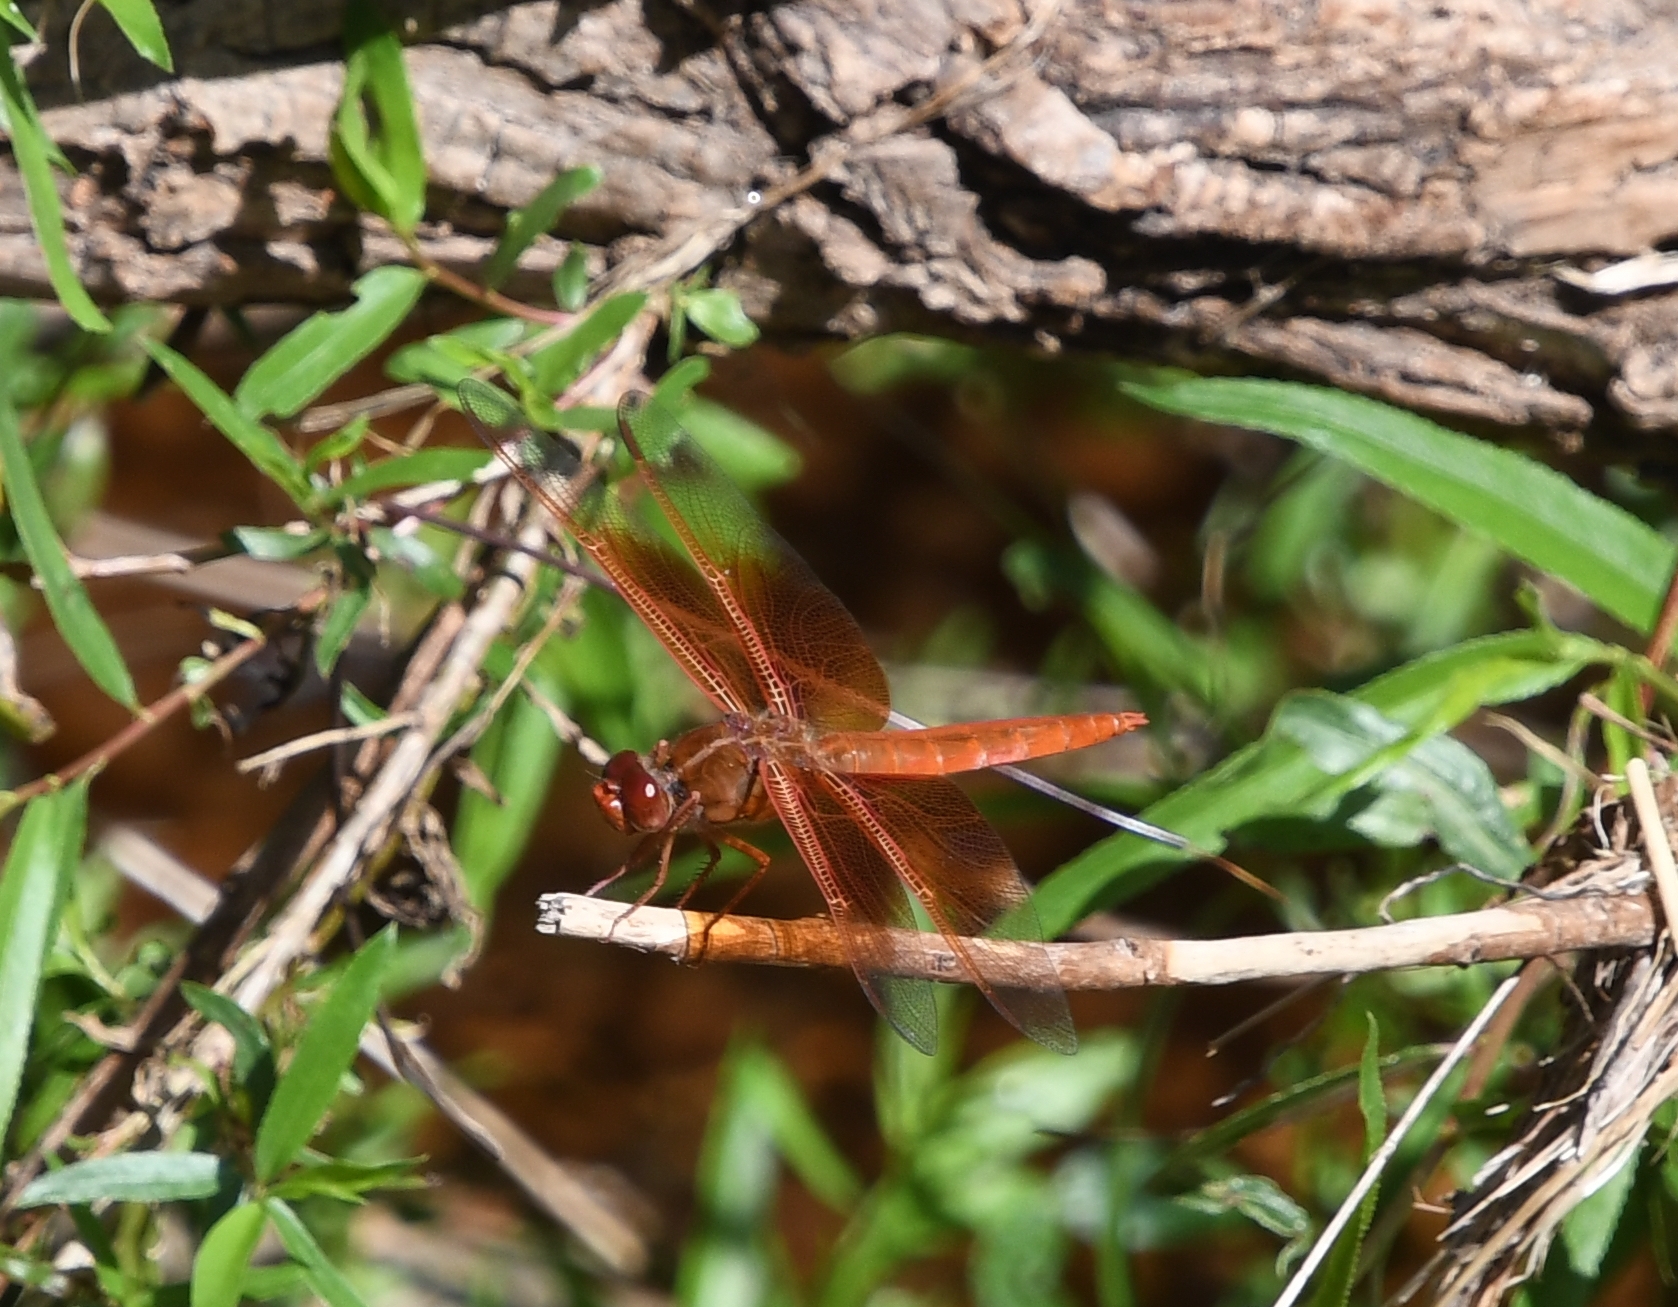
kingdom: Animalia
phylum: Arthropoda
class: Insecta
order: Odonata
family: Libellulidae
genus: Libellula
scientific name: Libellula saturata
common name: Flame skimmer
